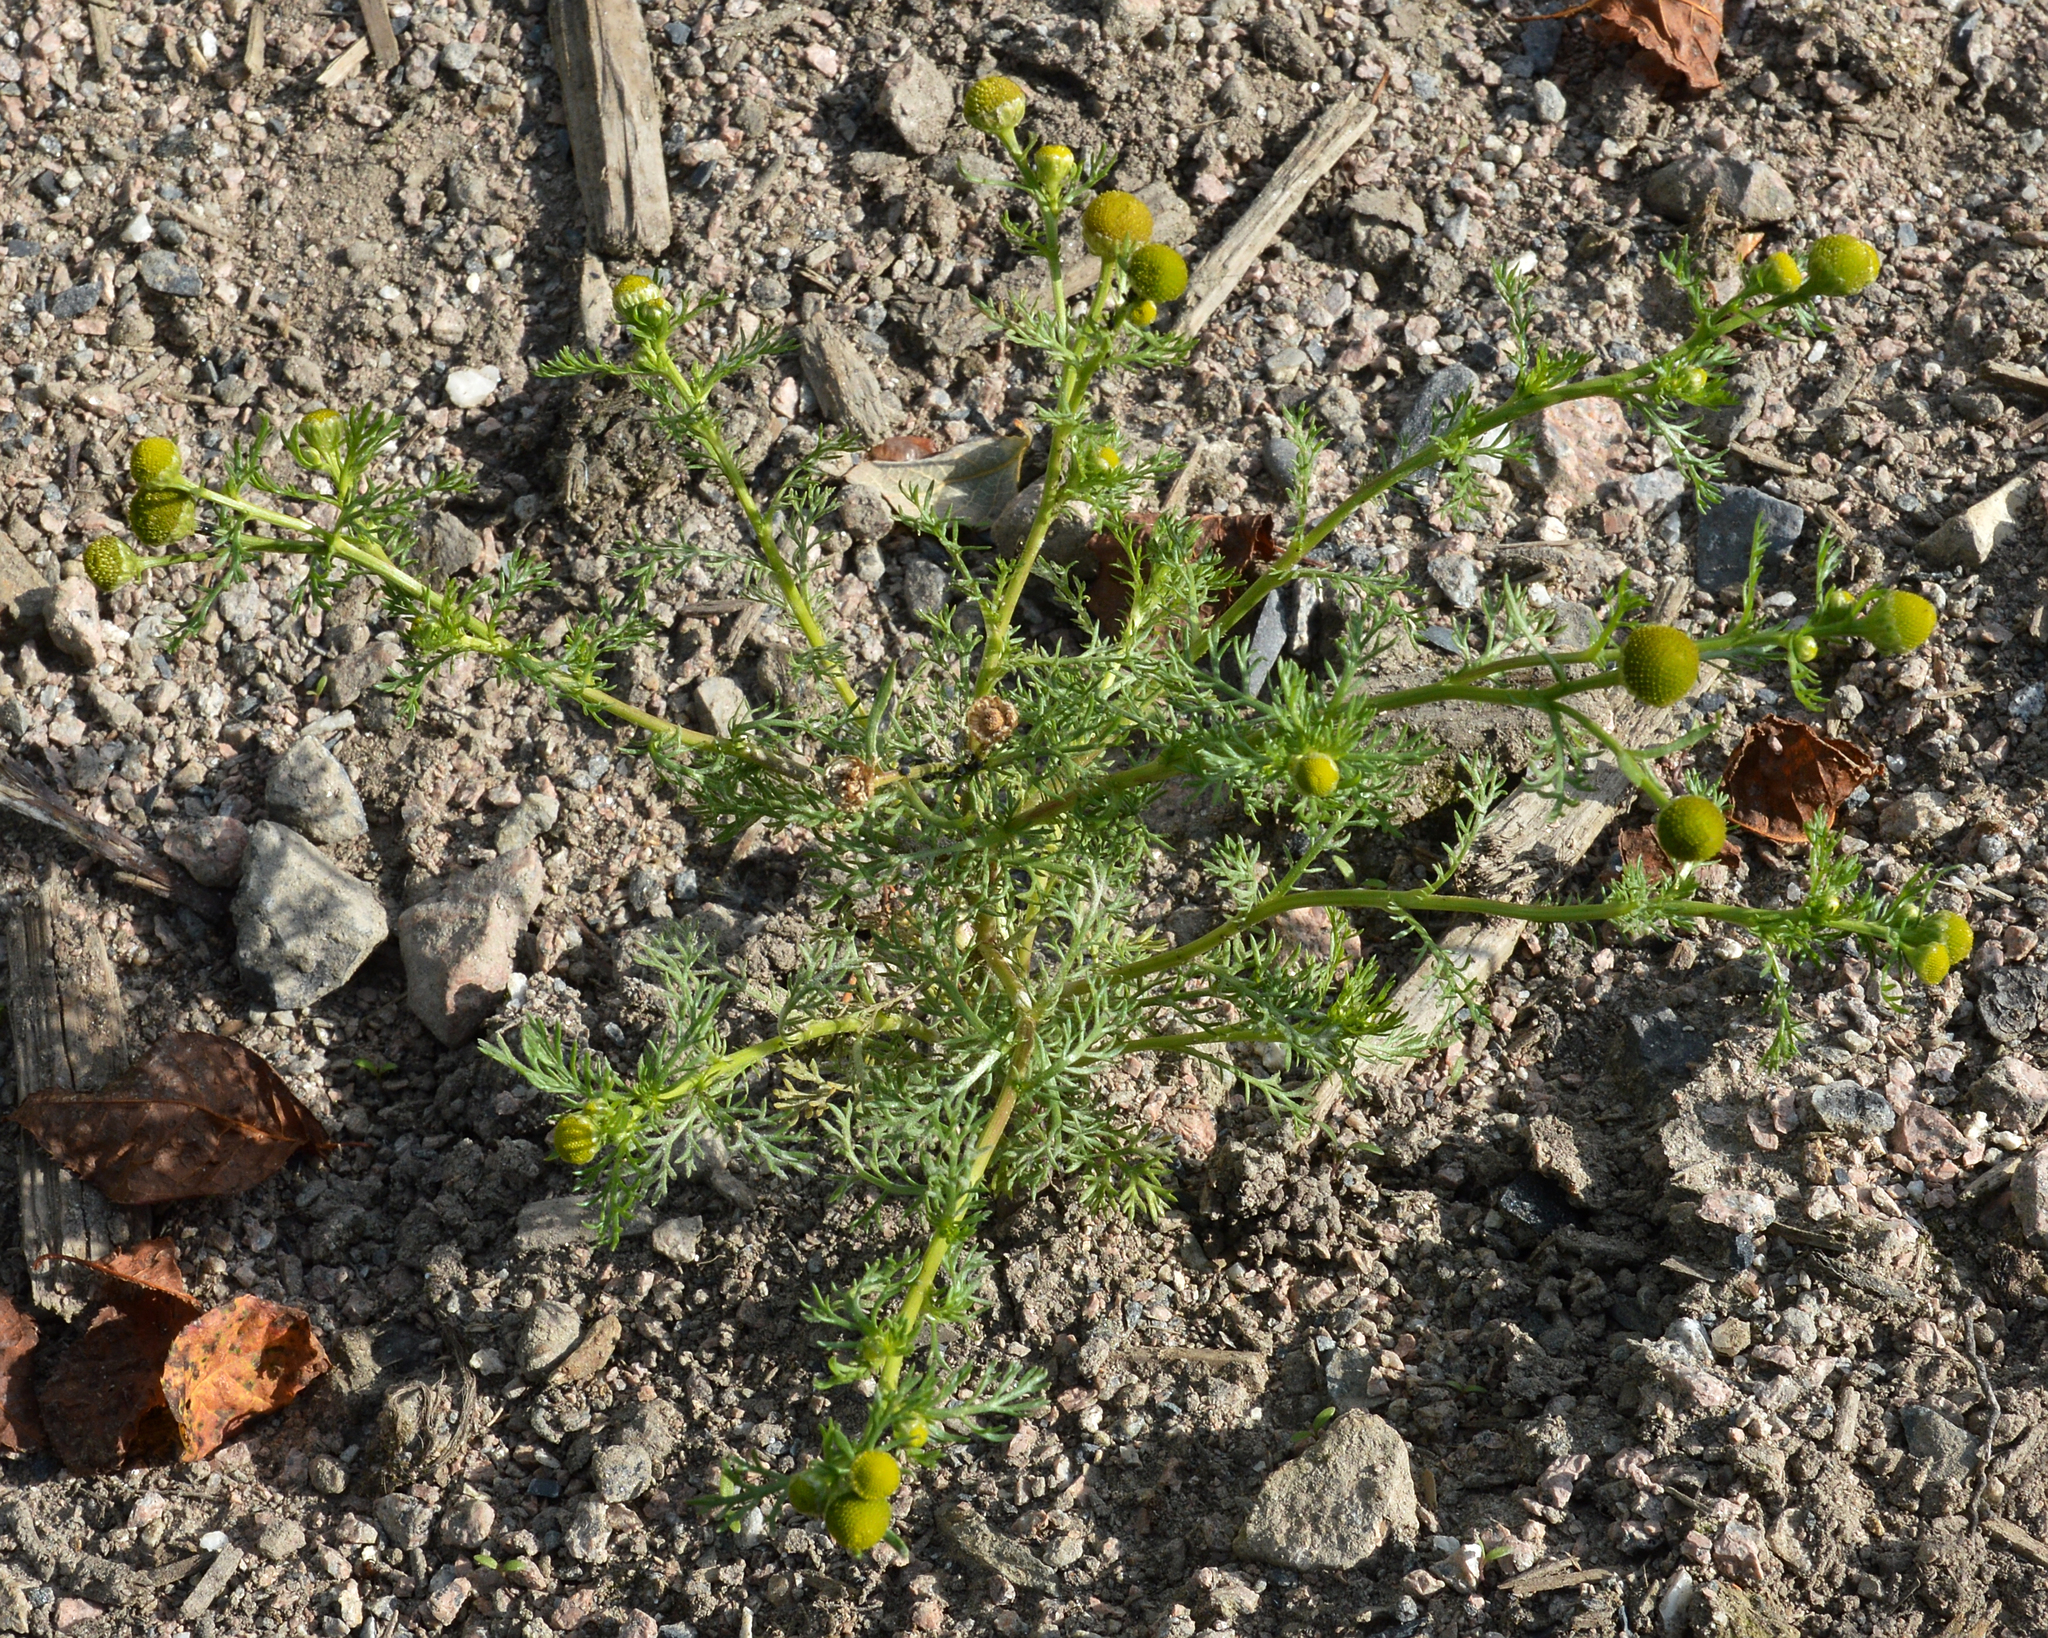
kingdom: Plantae
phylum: Tracheophyta
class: Magnoliopsida
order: Asterales
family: Asteraceae
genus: Matricaria
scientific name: Matricaria discoidea
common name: Disc mayweed
